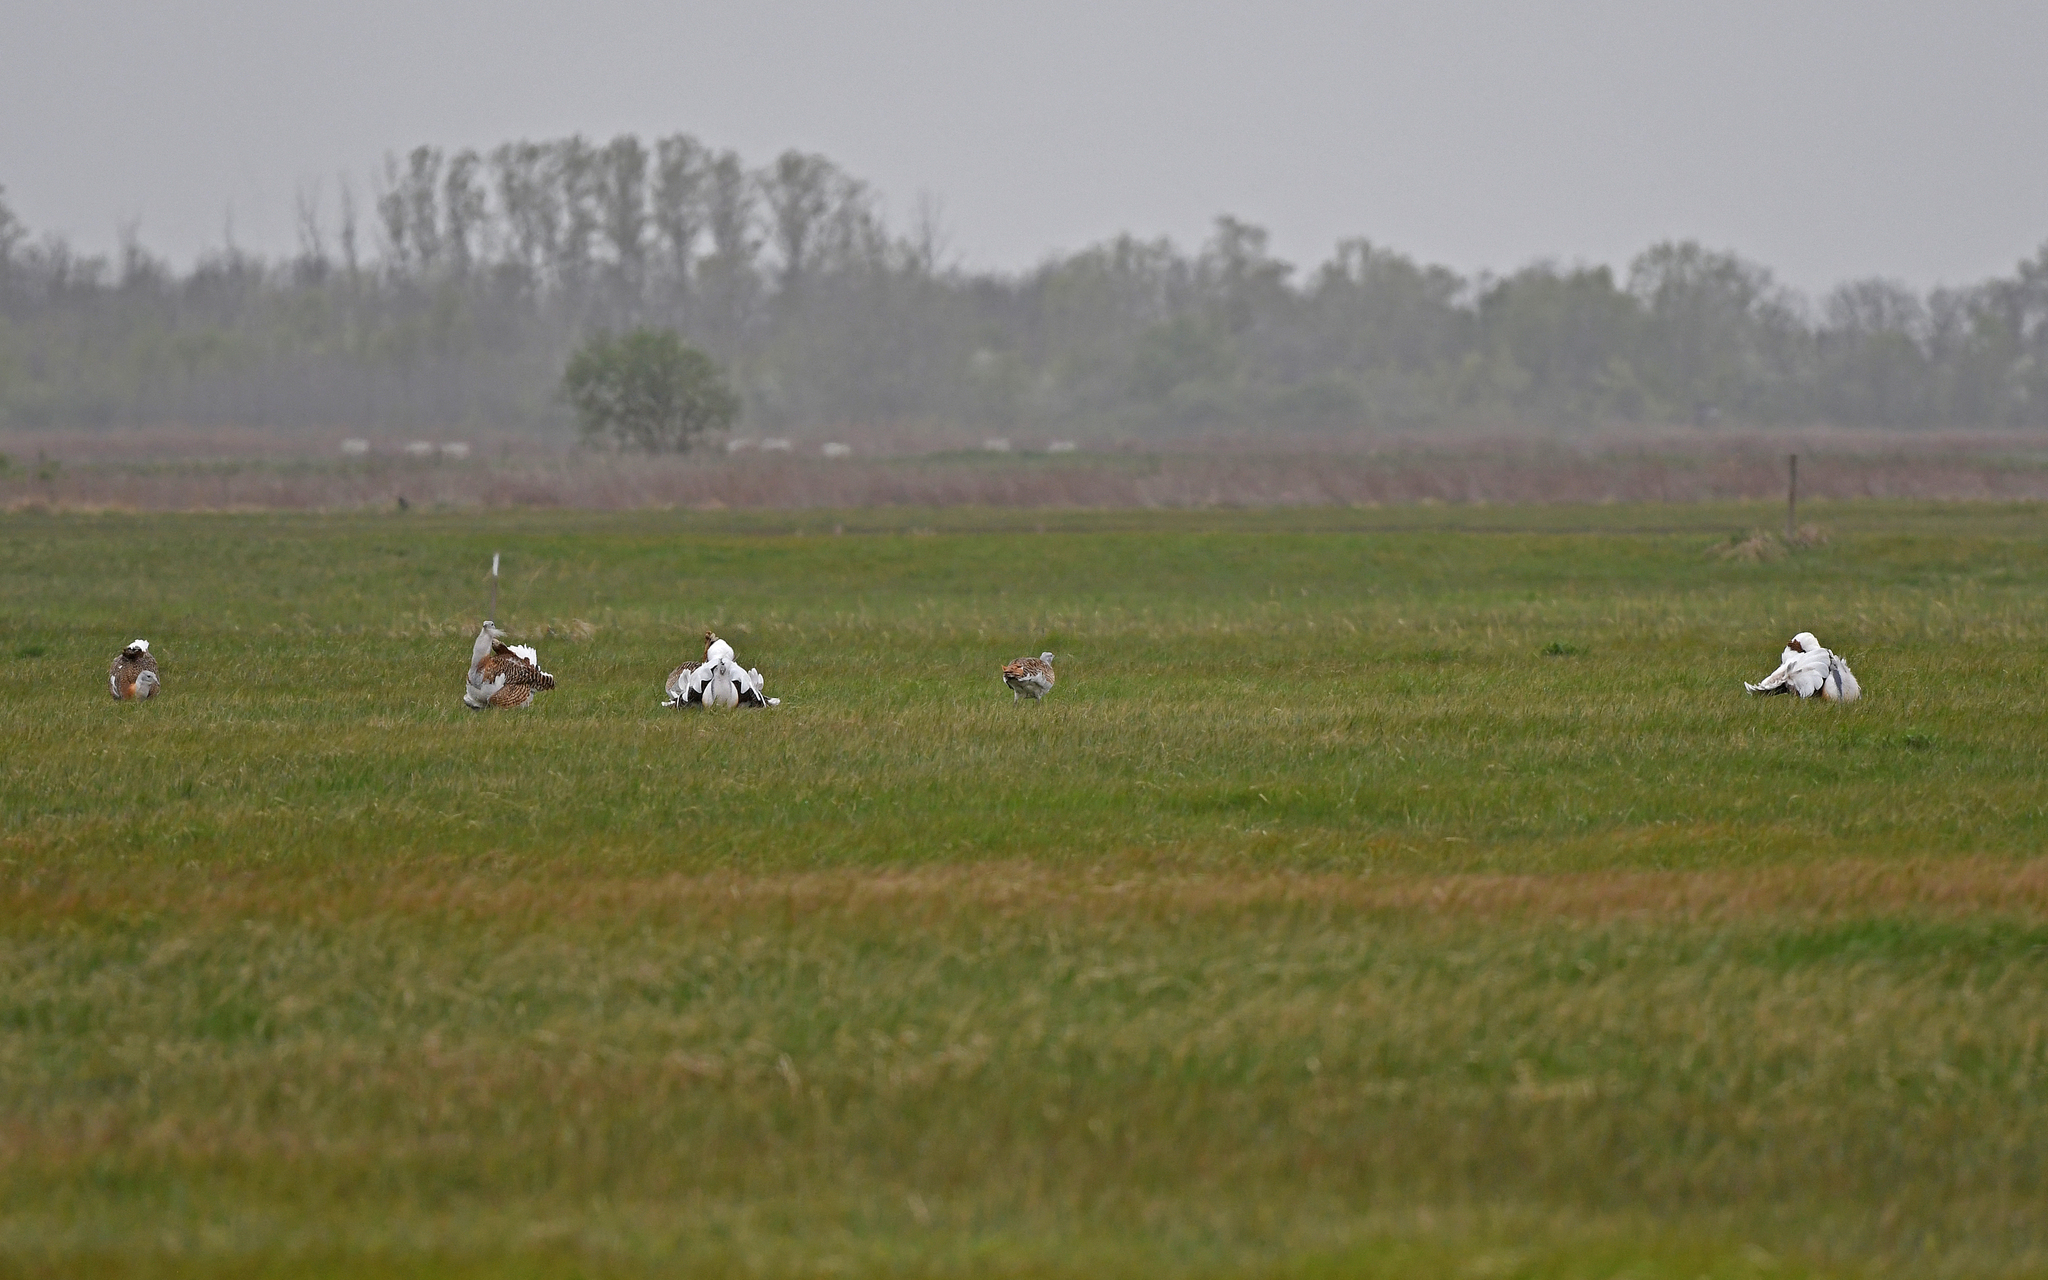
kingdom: Animalia
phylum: Chordata
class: Aves
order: Otidiformes
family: Otididae
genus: Otis
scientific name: Otis tarda
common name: Great bustard
